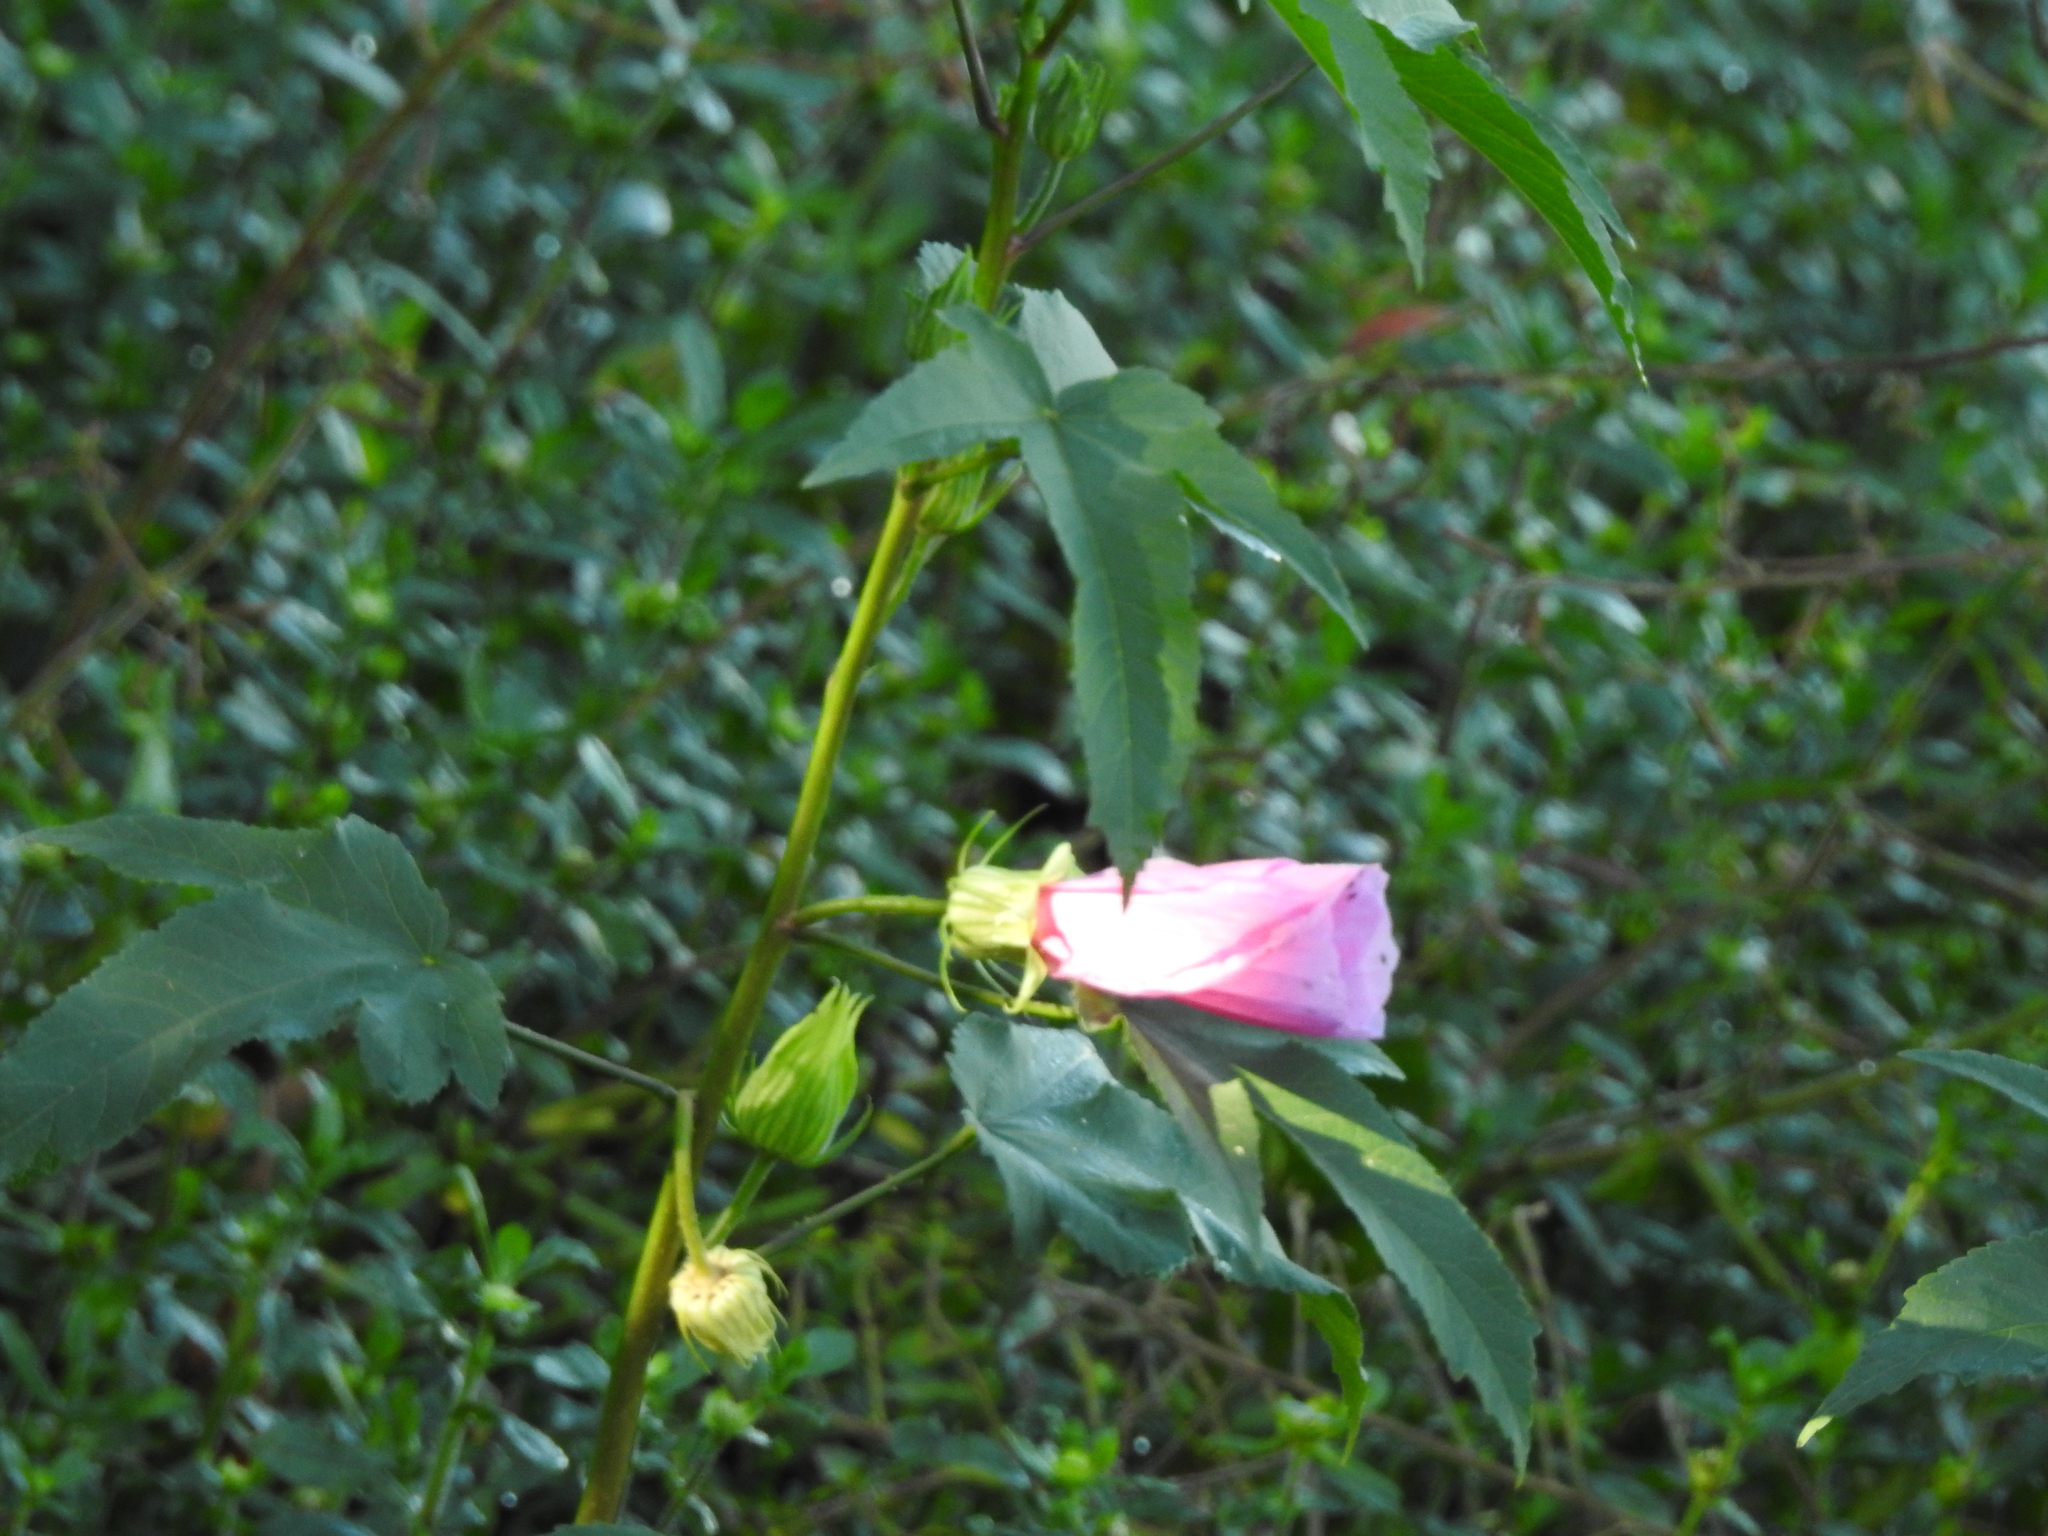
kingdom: Plantae
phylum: Tracheophyta
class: Magnoliopsida
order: Malvales
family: Malvaceae
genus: Hibiscus
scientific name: Hibiscus striatus
